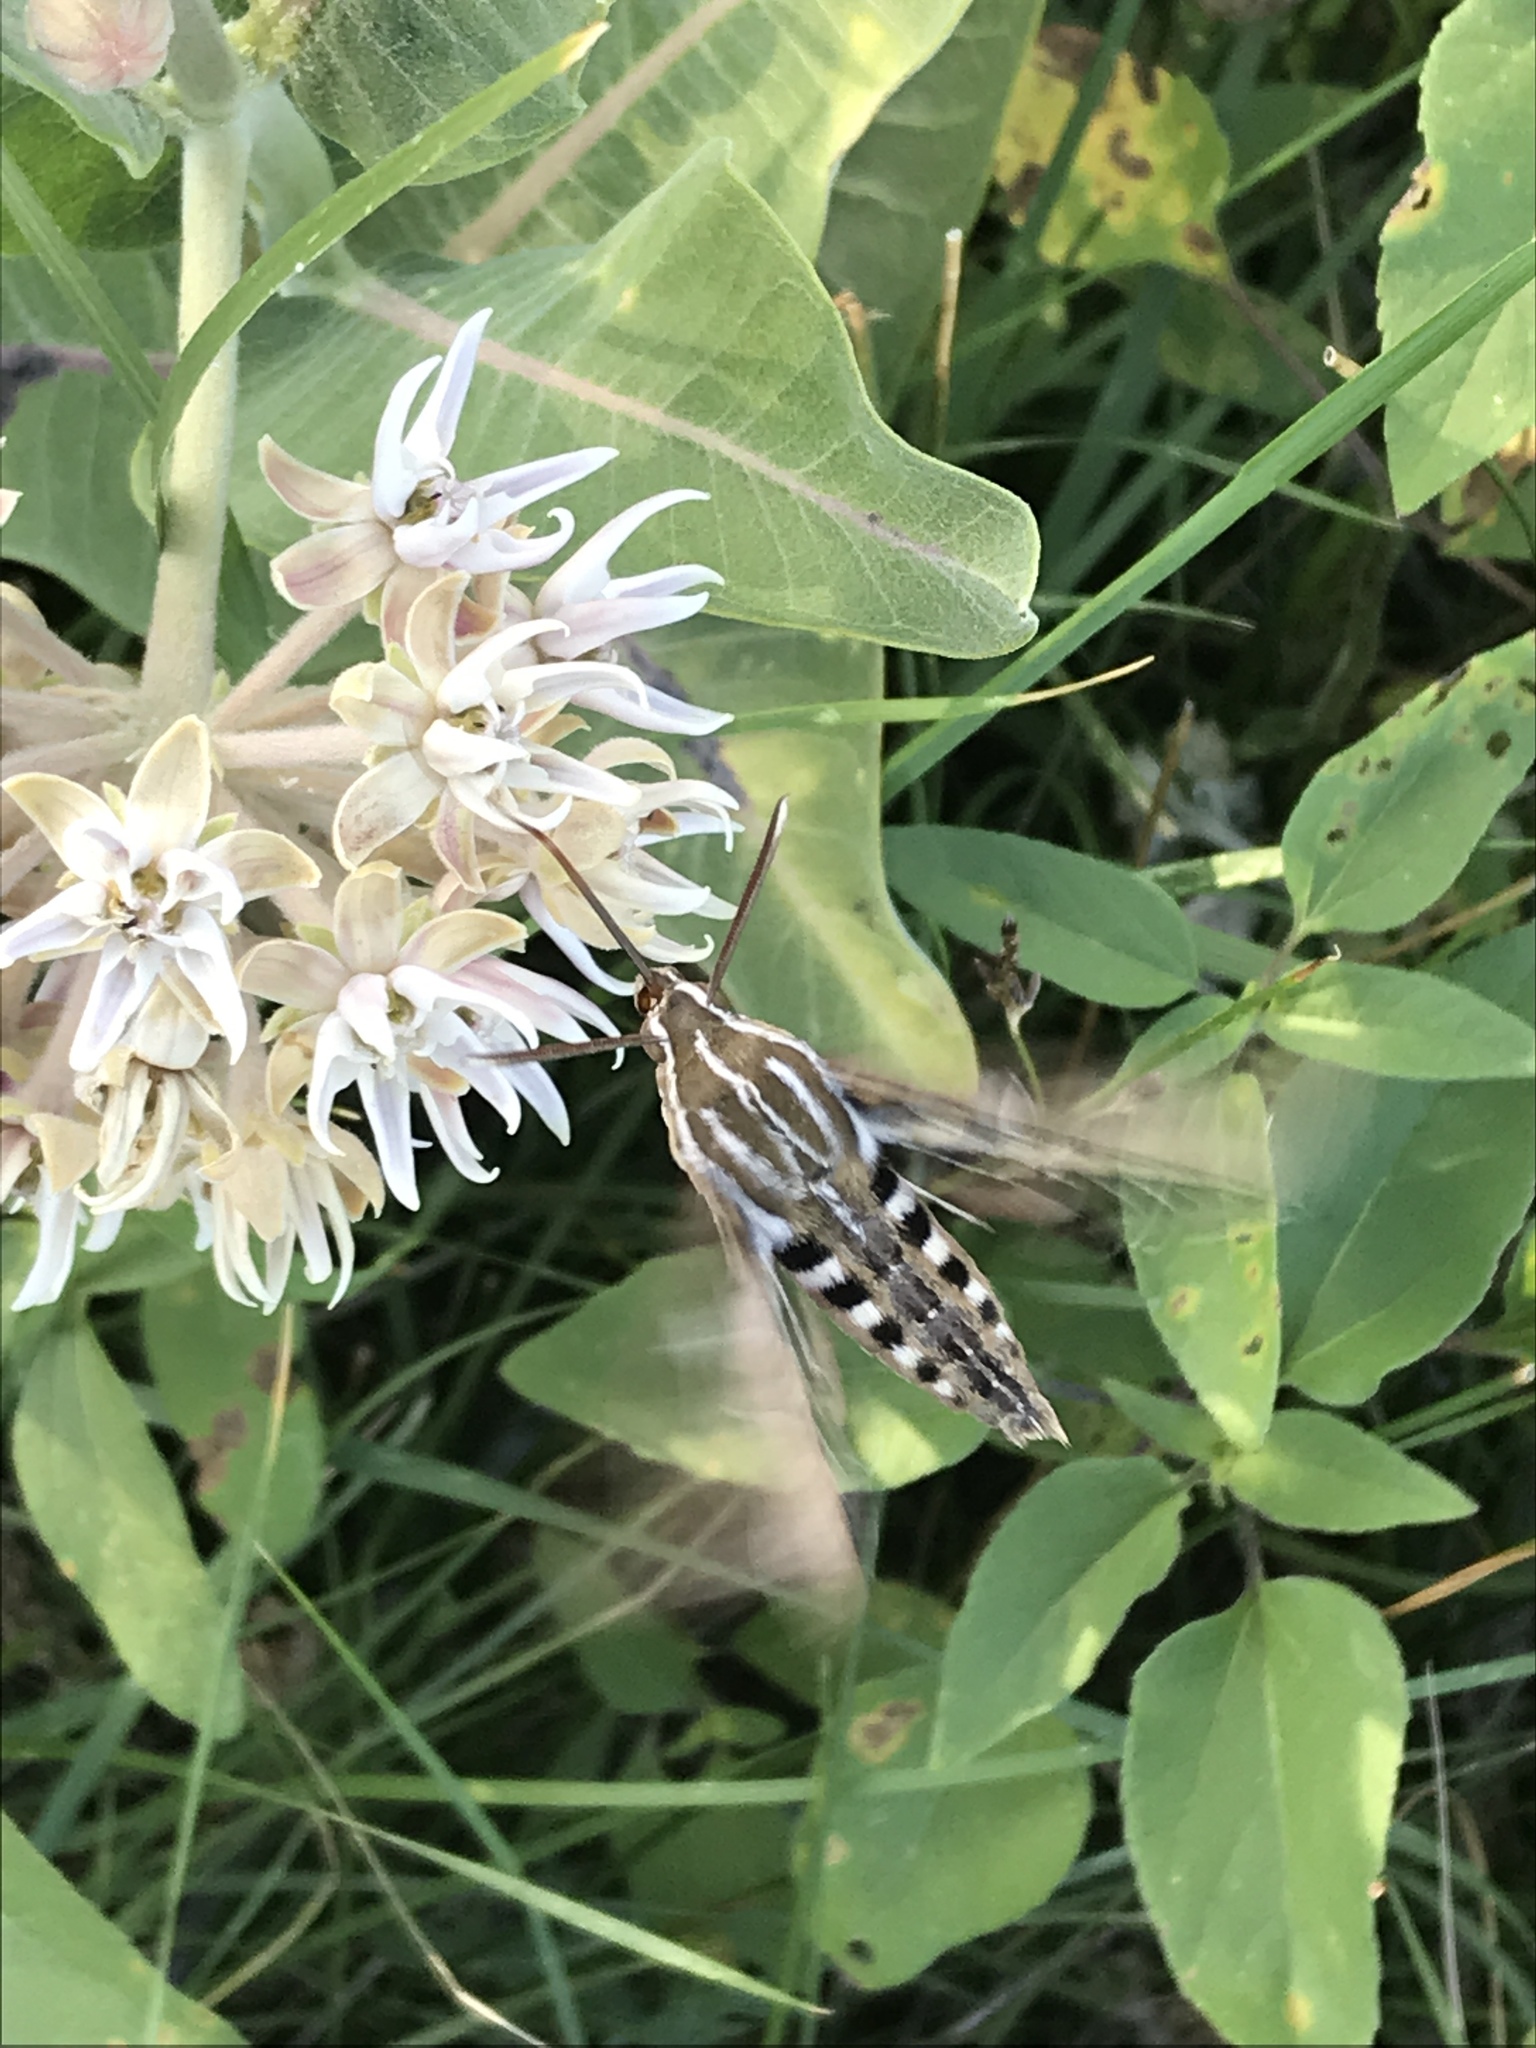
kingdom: Animalia
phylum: Arthropoda
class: Insecta
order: Lepidoptera
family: Sphingidae
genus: Hyles
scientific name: Hyles lineata
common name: White-lined sphinx
